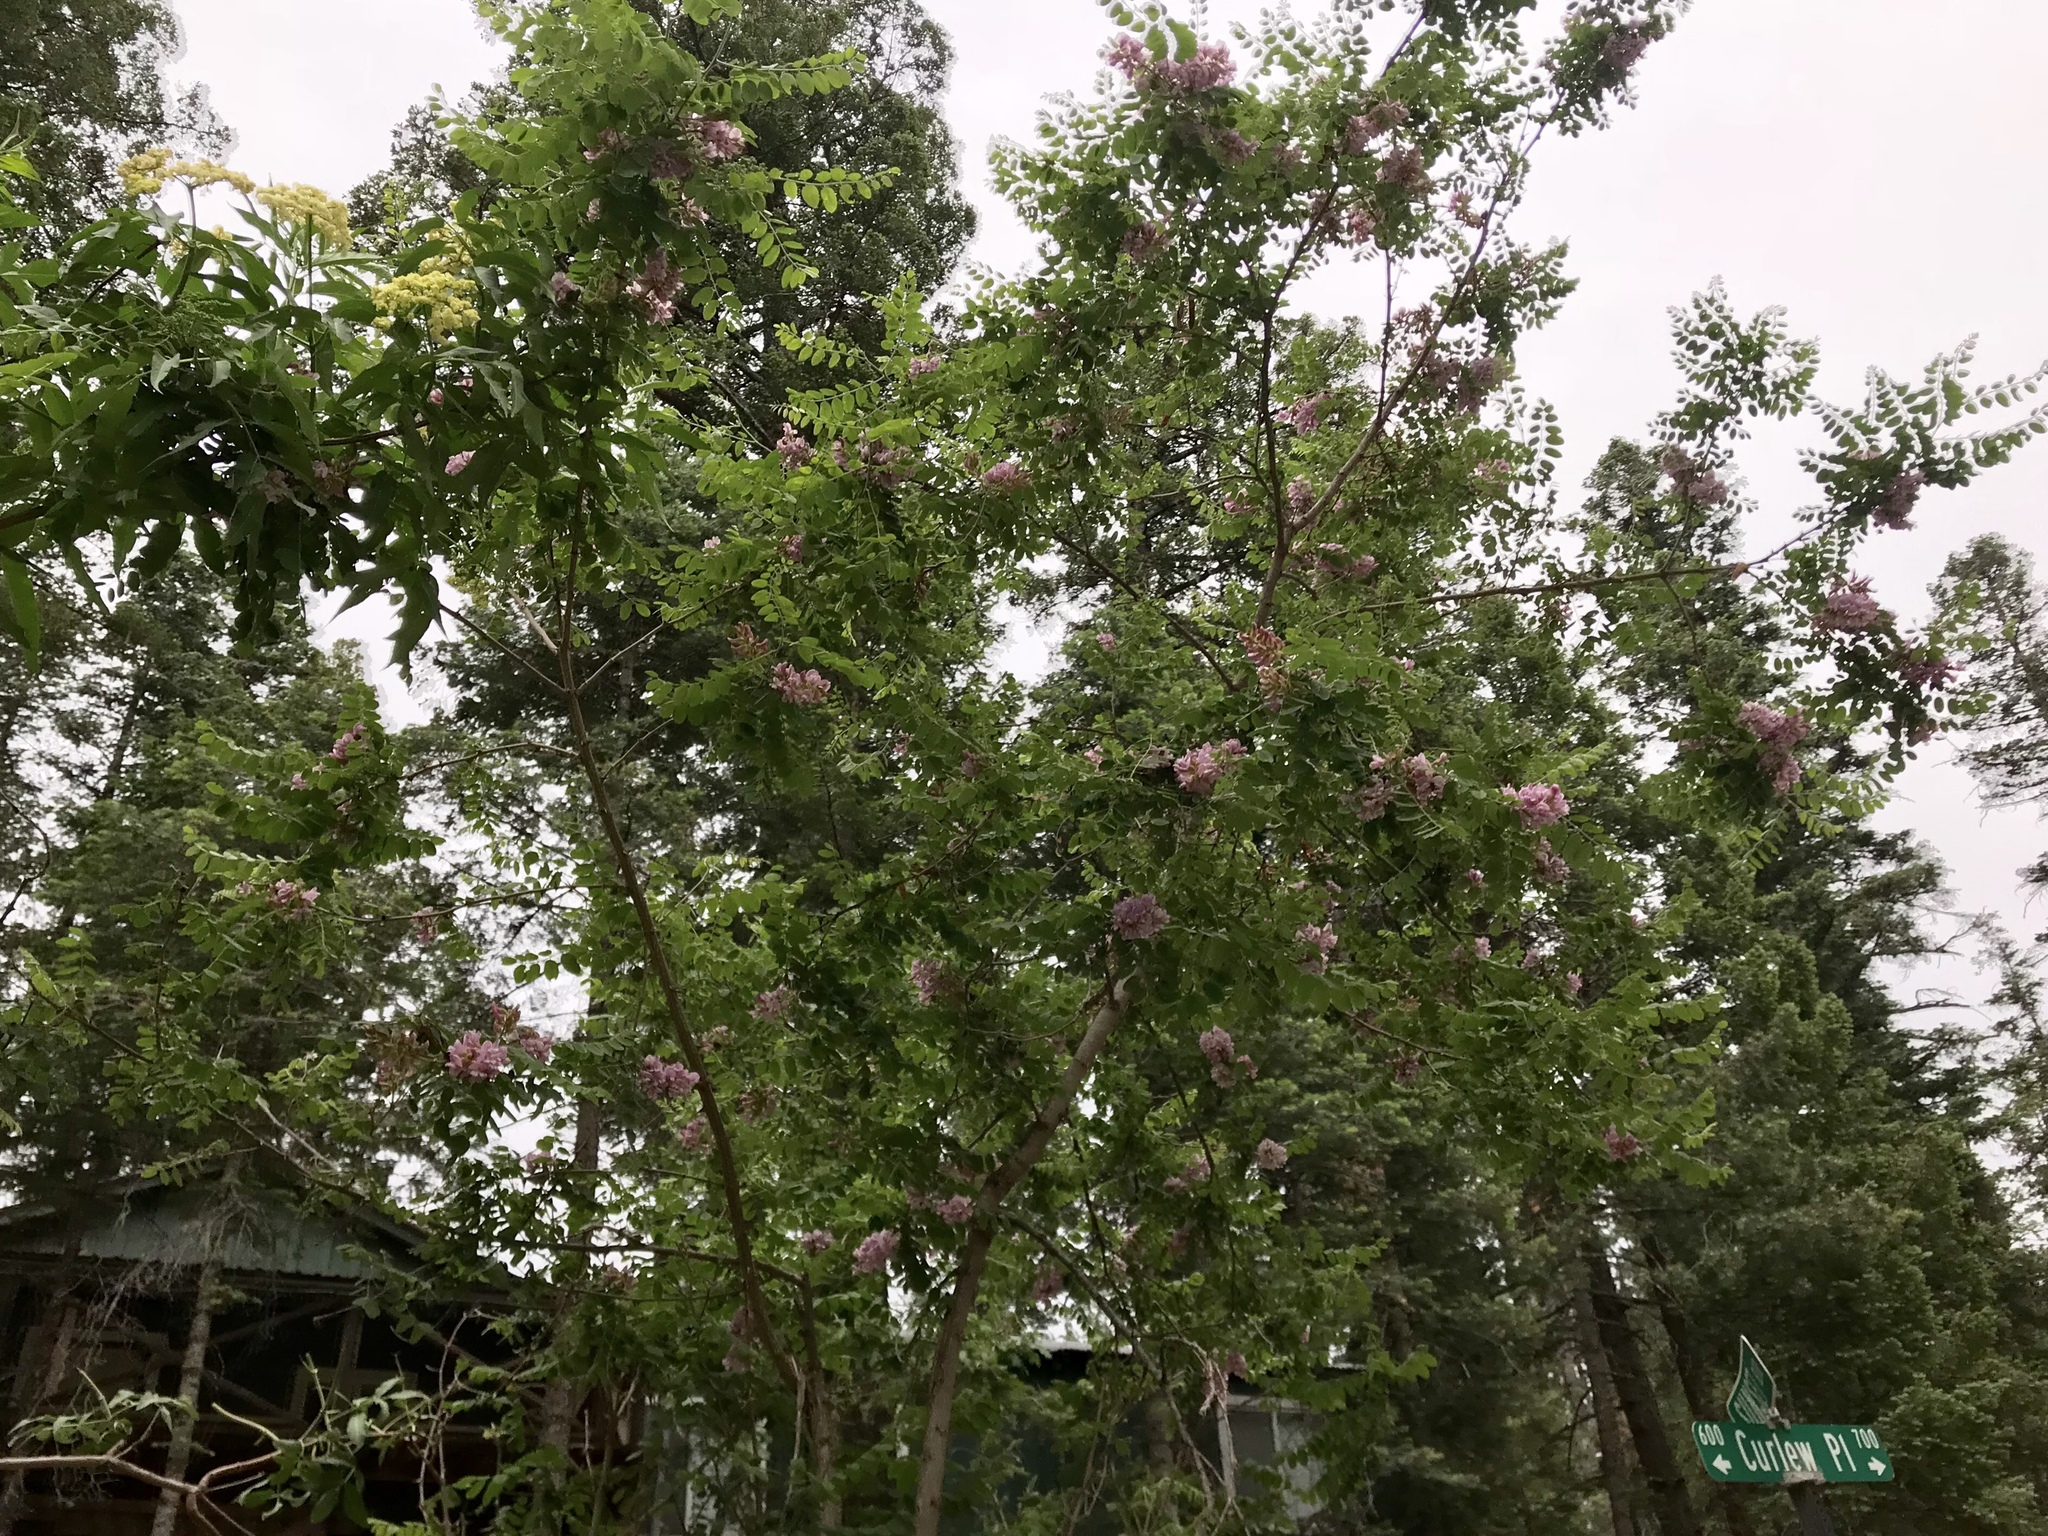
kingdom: Plantae
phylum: Tracheophyta
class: Magnoliopsida
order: Fabales
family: Fabaceae
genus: Robinia
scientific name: Robinia neomexicana
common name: New mexico locust
